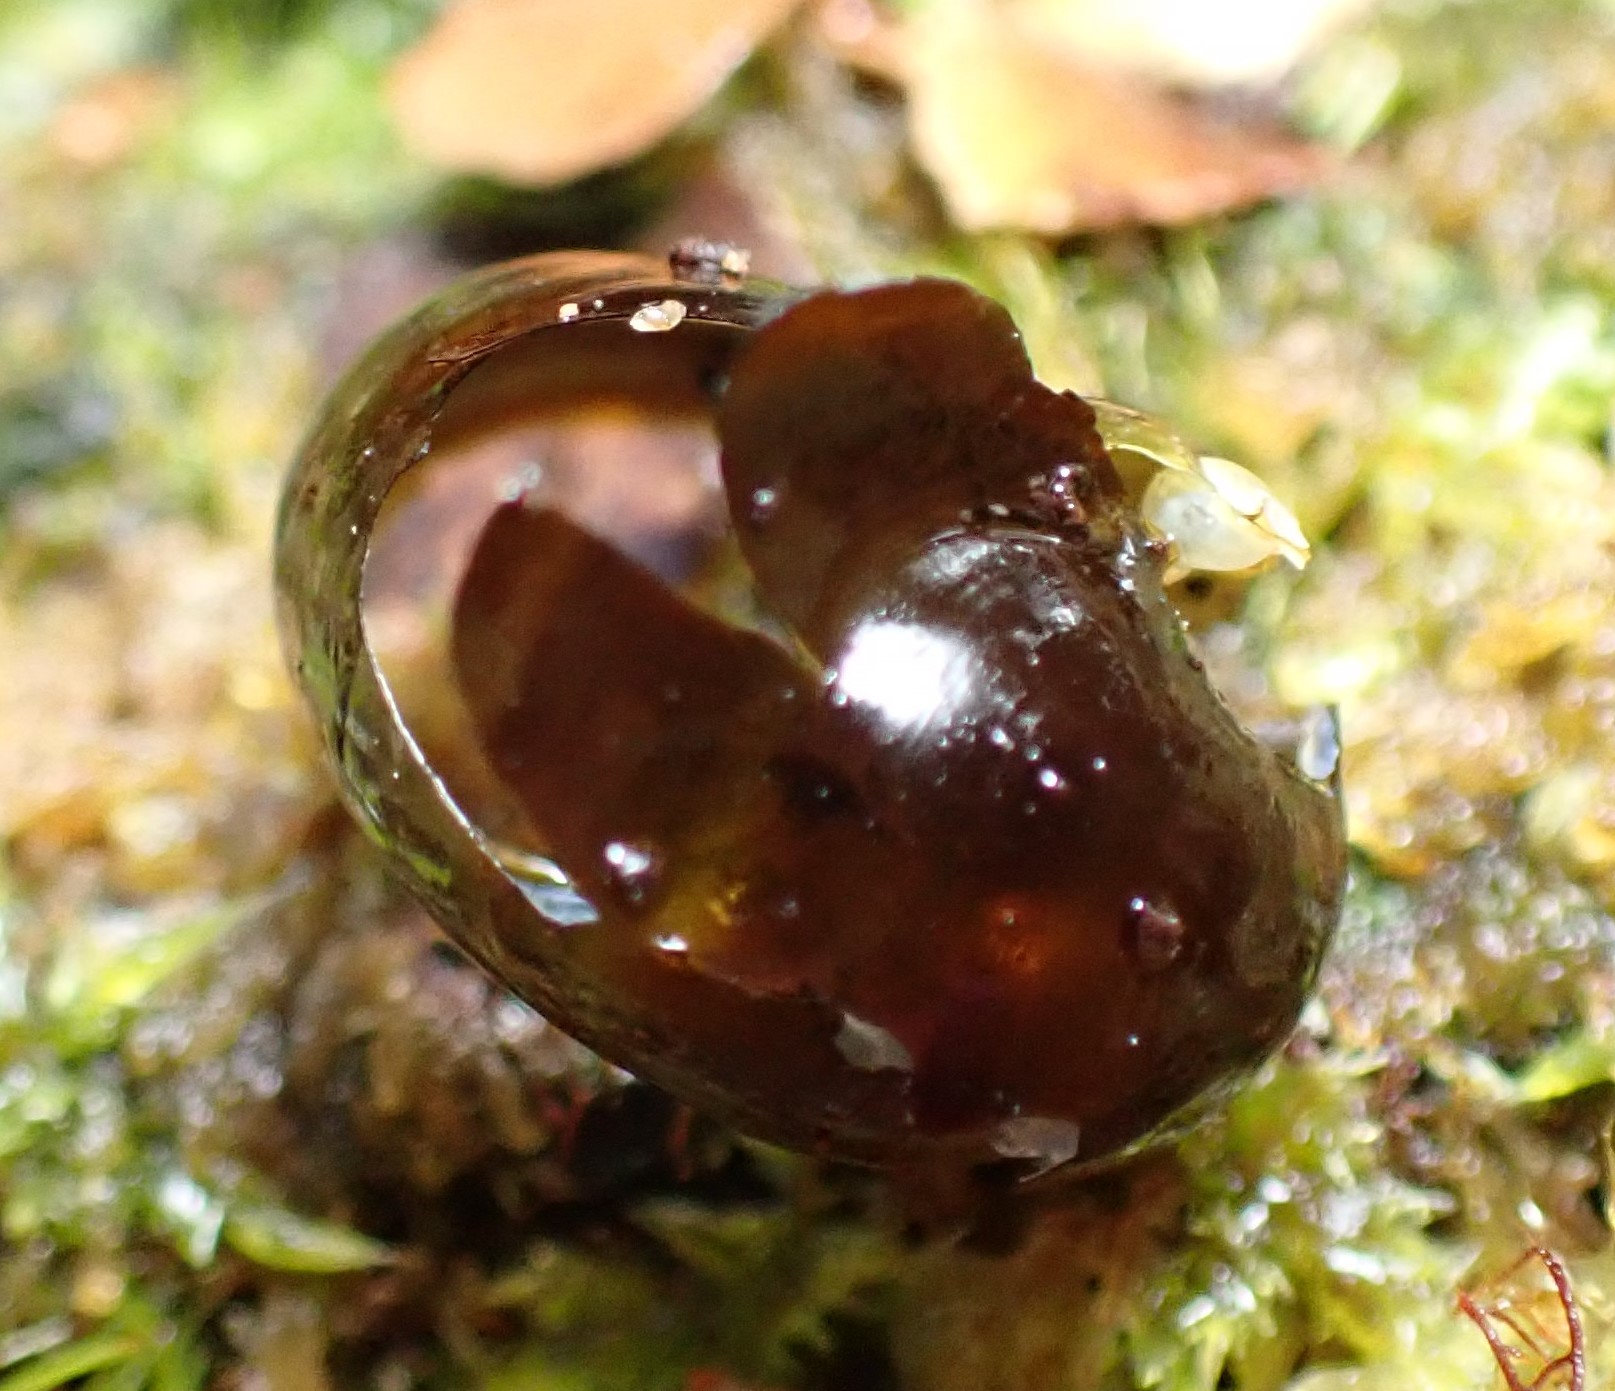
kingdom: Animalia
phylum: Mollusca
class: Gastropoda
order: Stylommatophora
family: Rhytididae
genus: Victaphanta
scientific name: Victaphanta milligani
